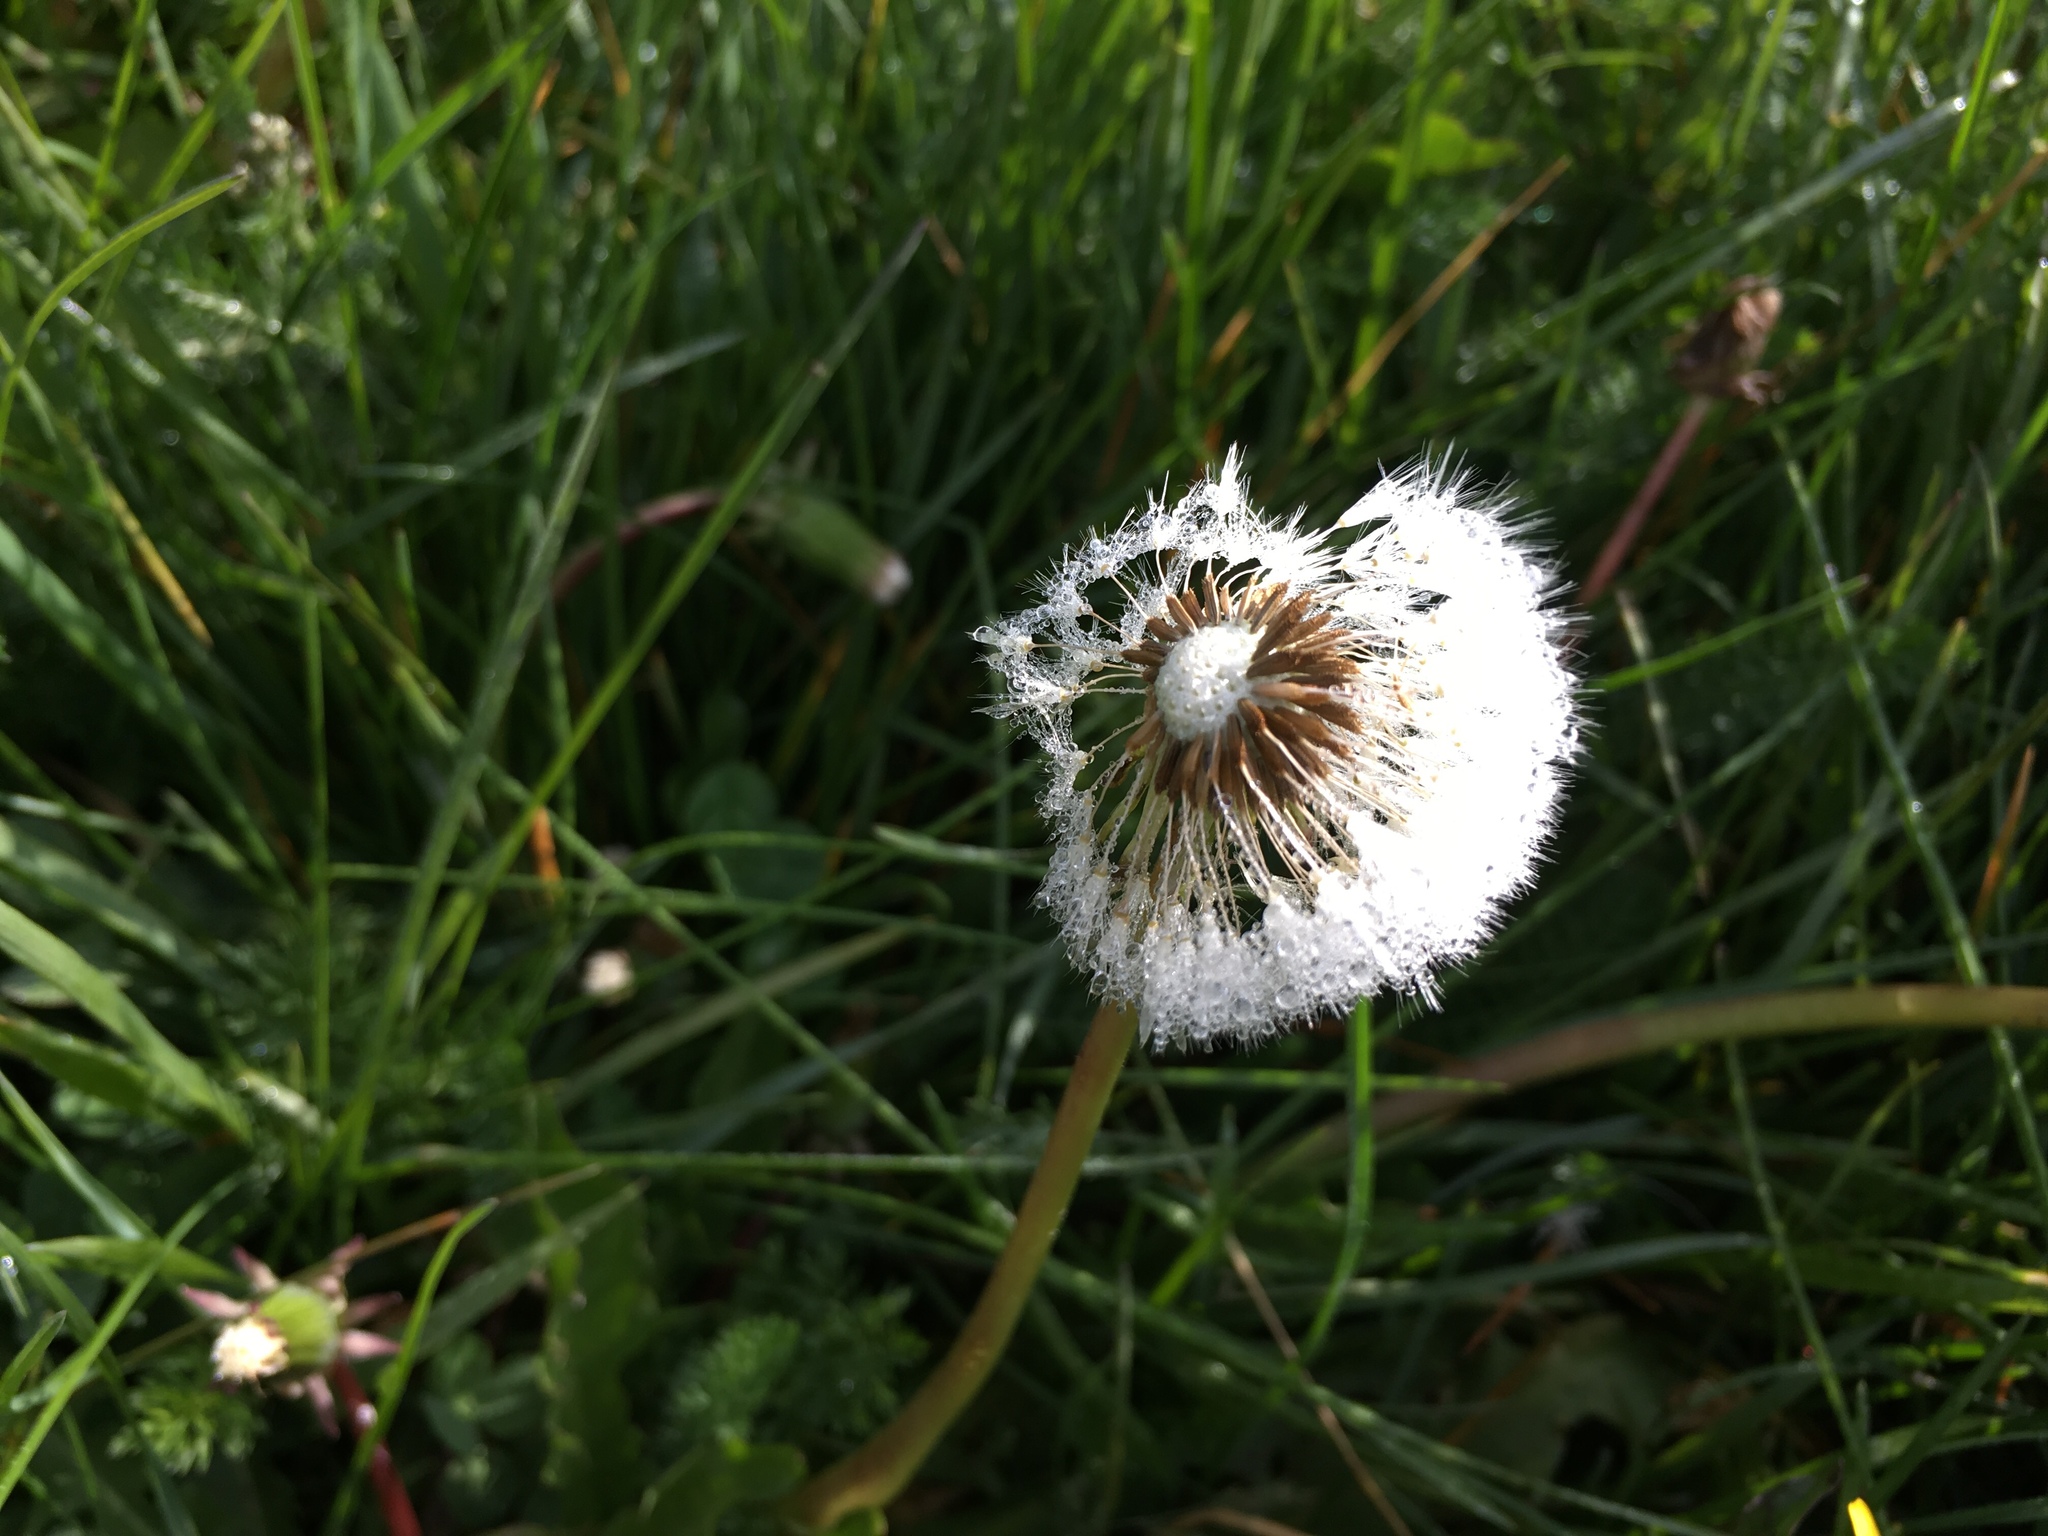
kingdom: Plantae
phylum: Tracheophyta
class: Magnoliopsida
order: Asterales
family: Asteraceae
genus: Taraxacum
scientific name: Taraxacum officinale
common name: Common dandelion
